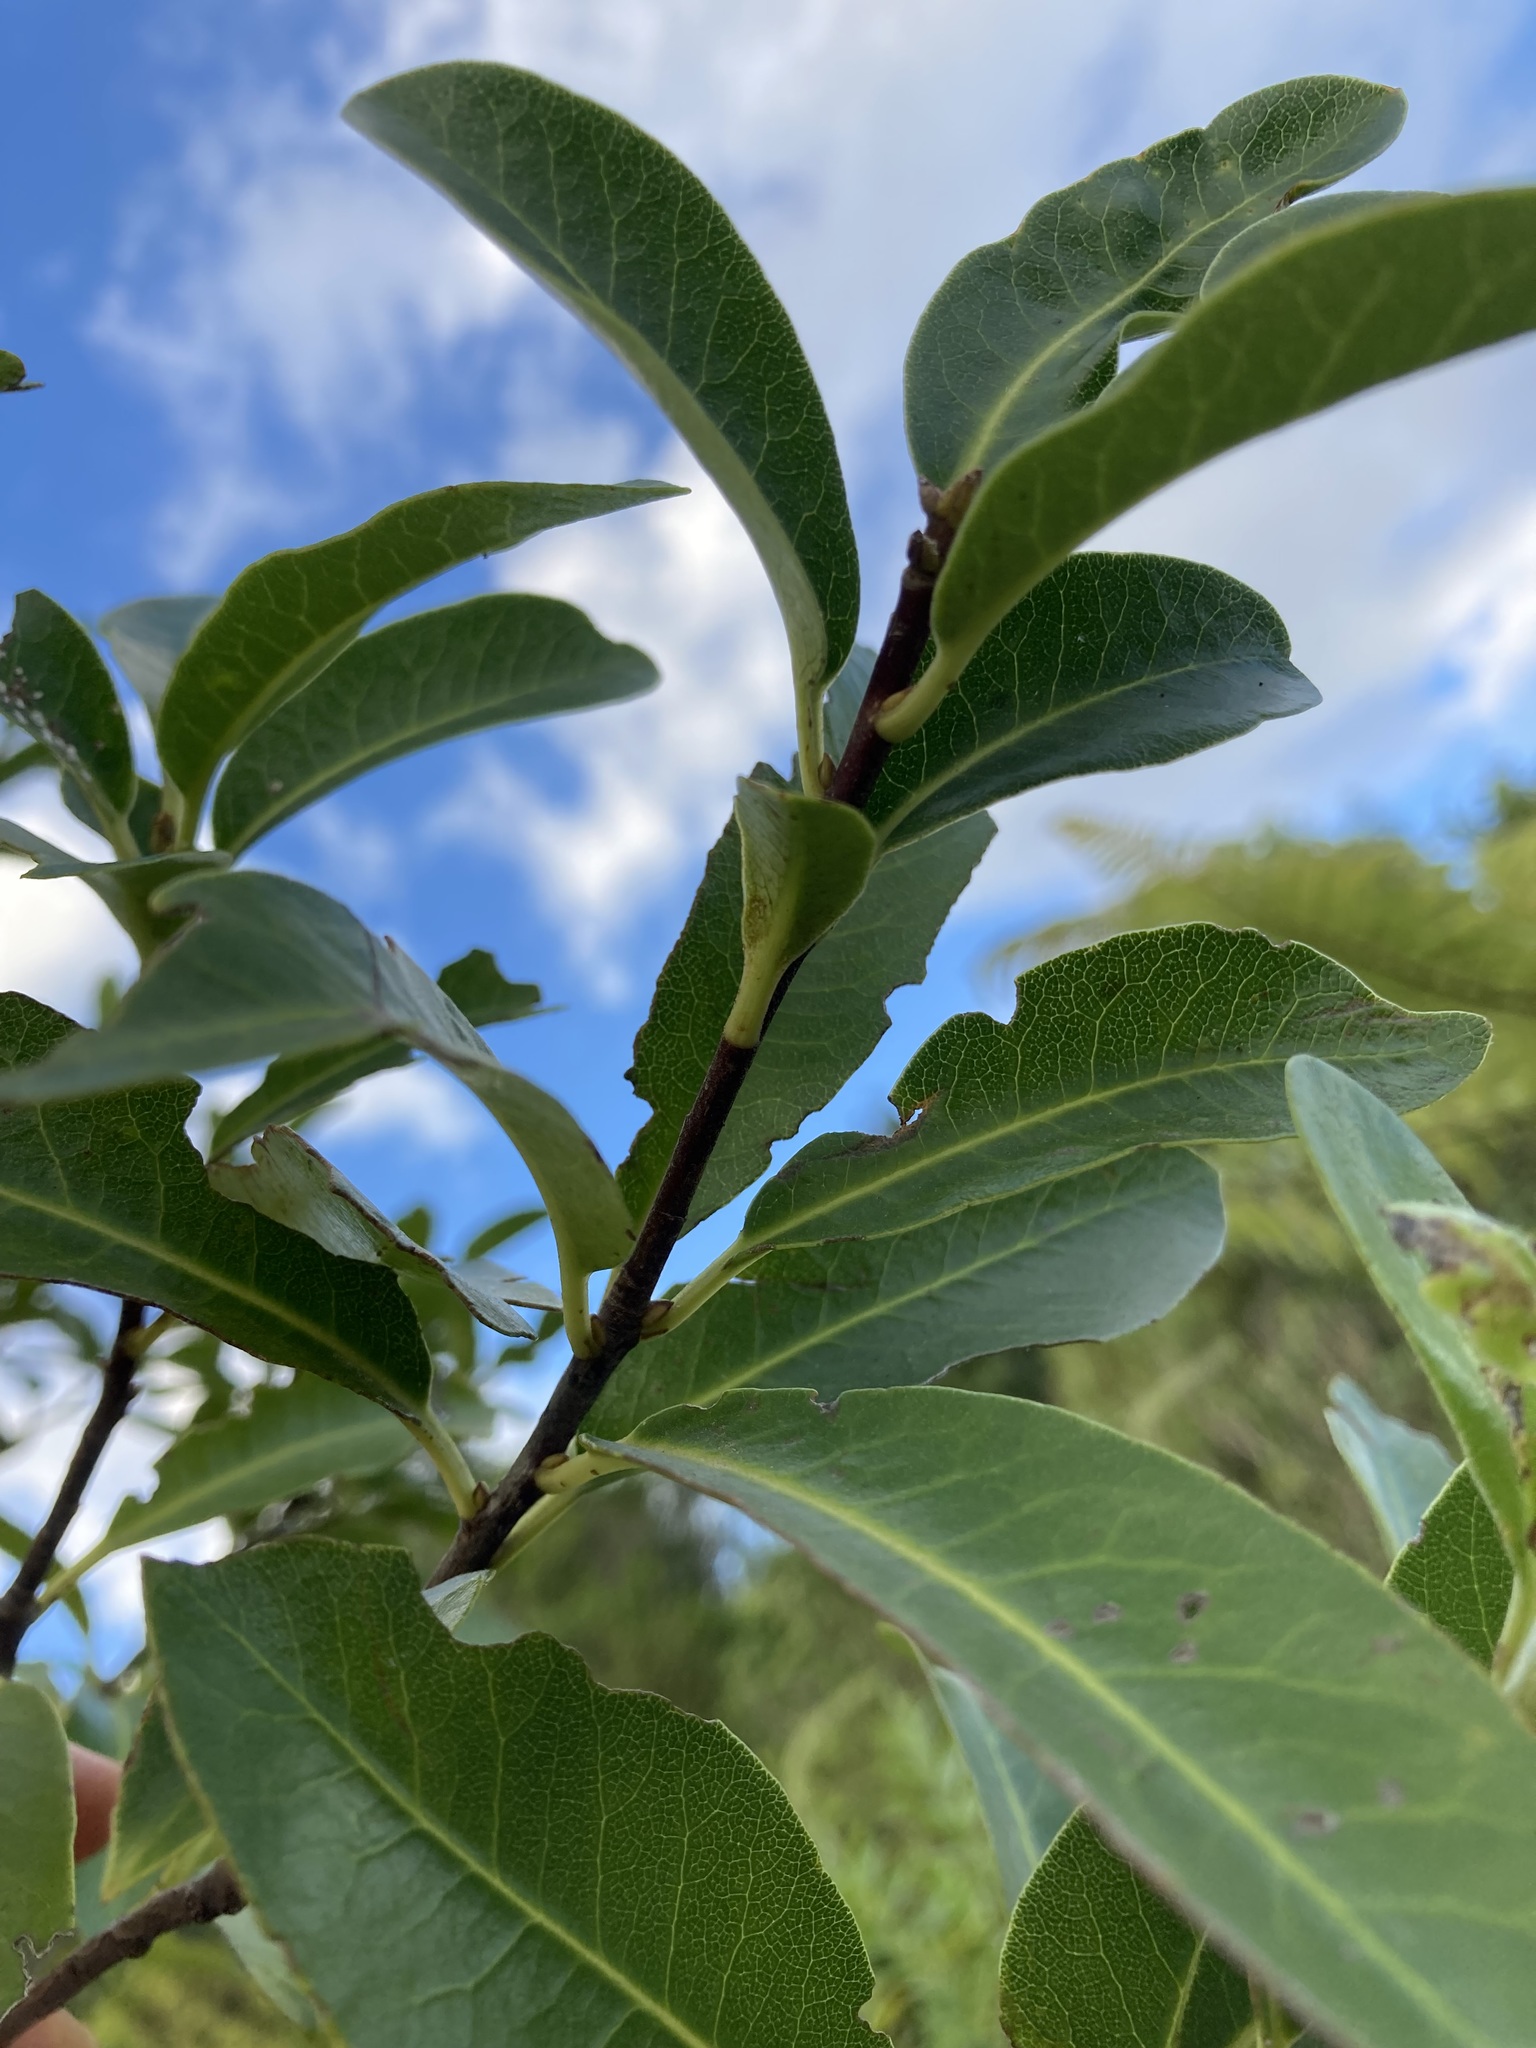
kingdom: Plantae
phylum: Tracheophyta
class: Magnoliopsida
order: Apiales
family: Pittosporaceae
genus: Pittosporum
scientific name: Pittosporum colensoi
